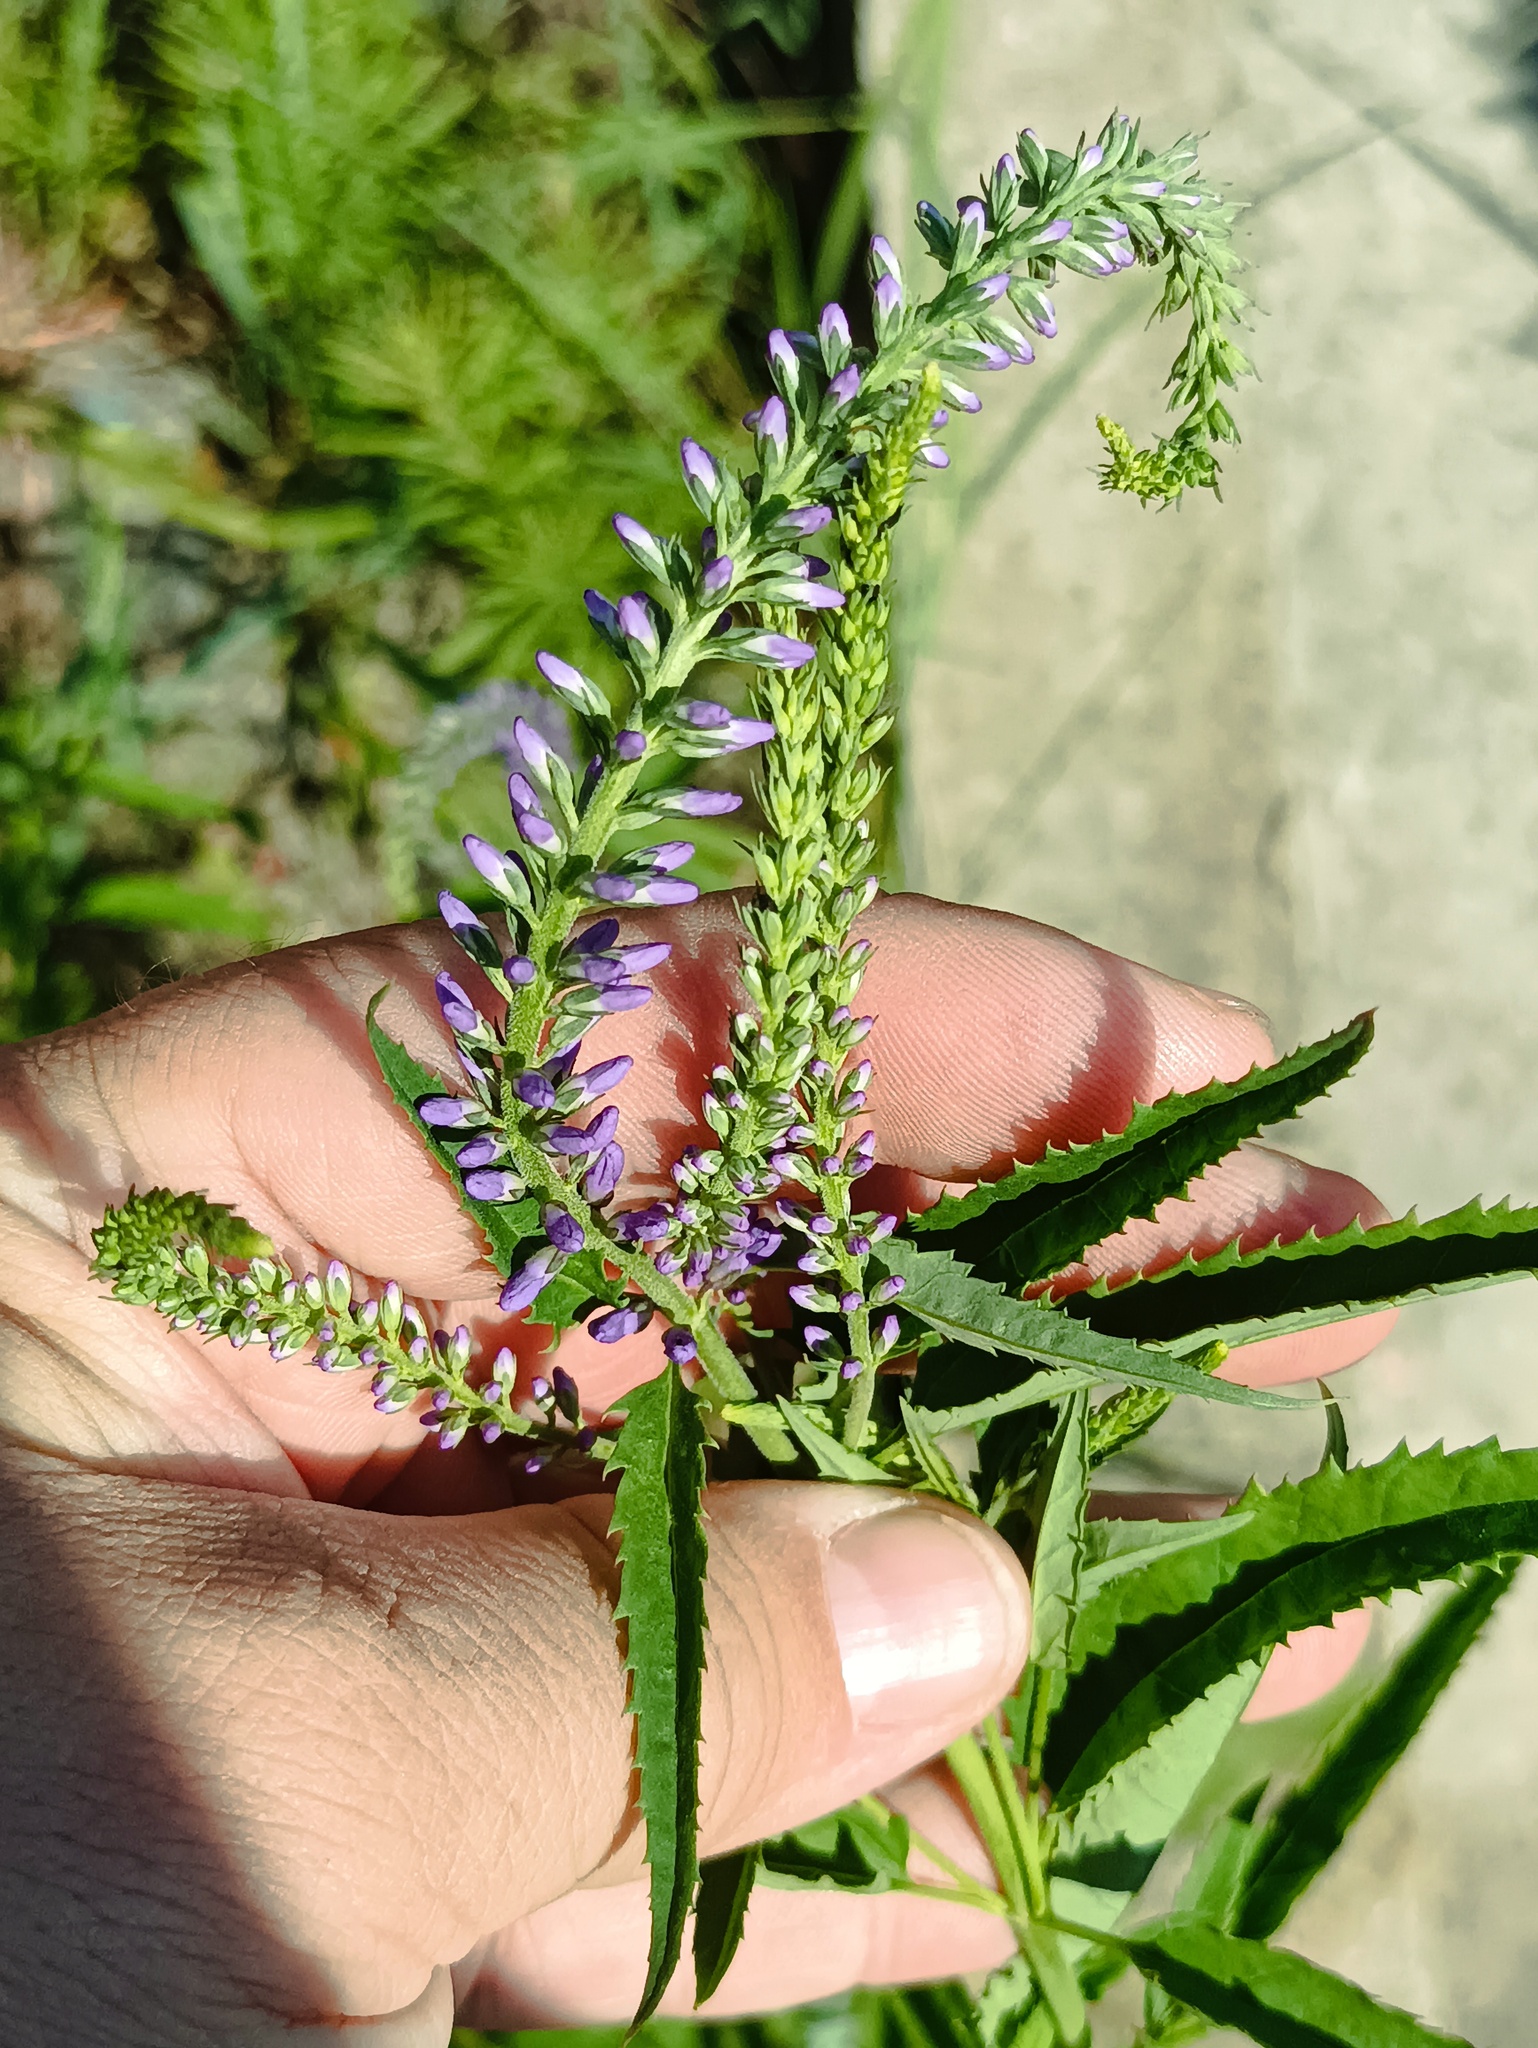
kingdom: Plantae
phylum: Tracheophyta
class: Magnoliopsida
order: Lamiales
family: Plantaginaceae
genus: Veronica
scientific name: Veronica longifolia
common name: Garden speedwell
